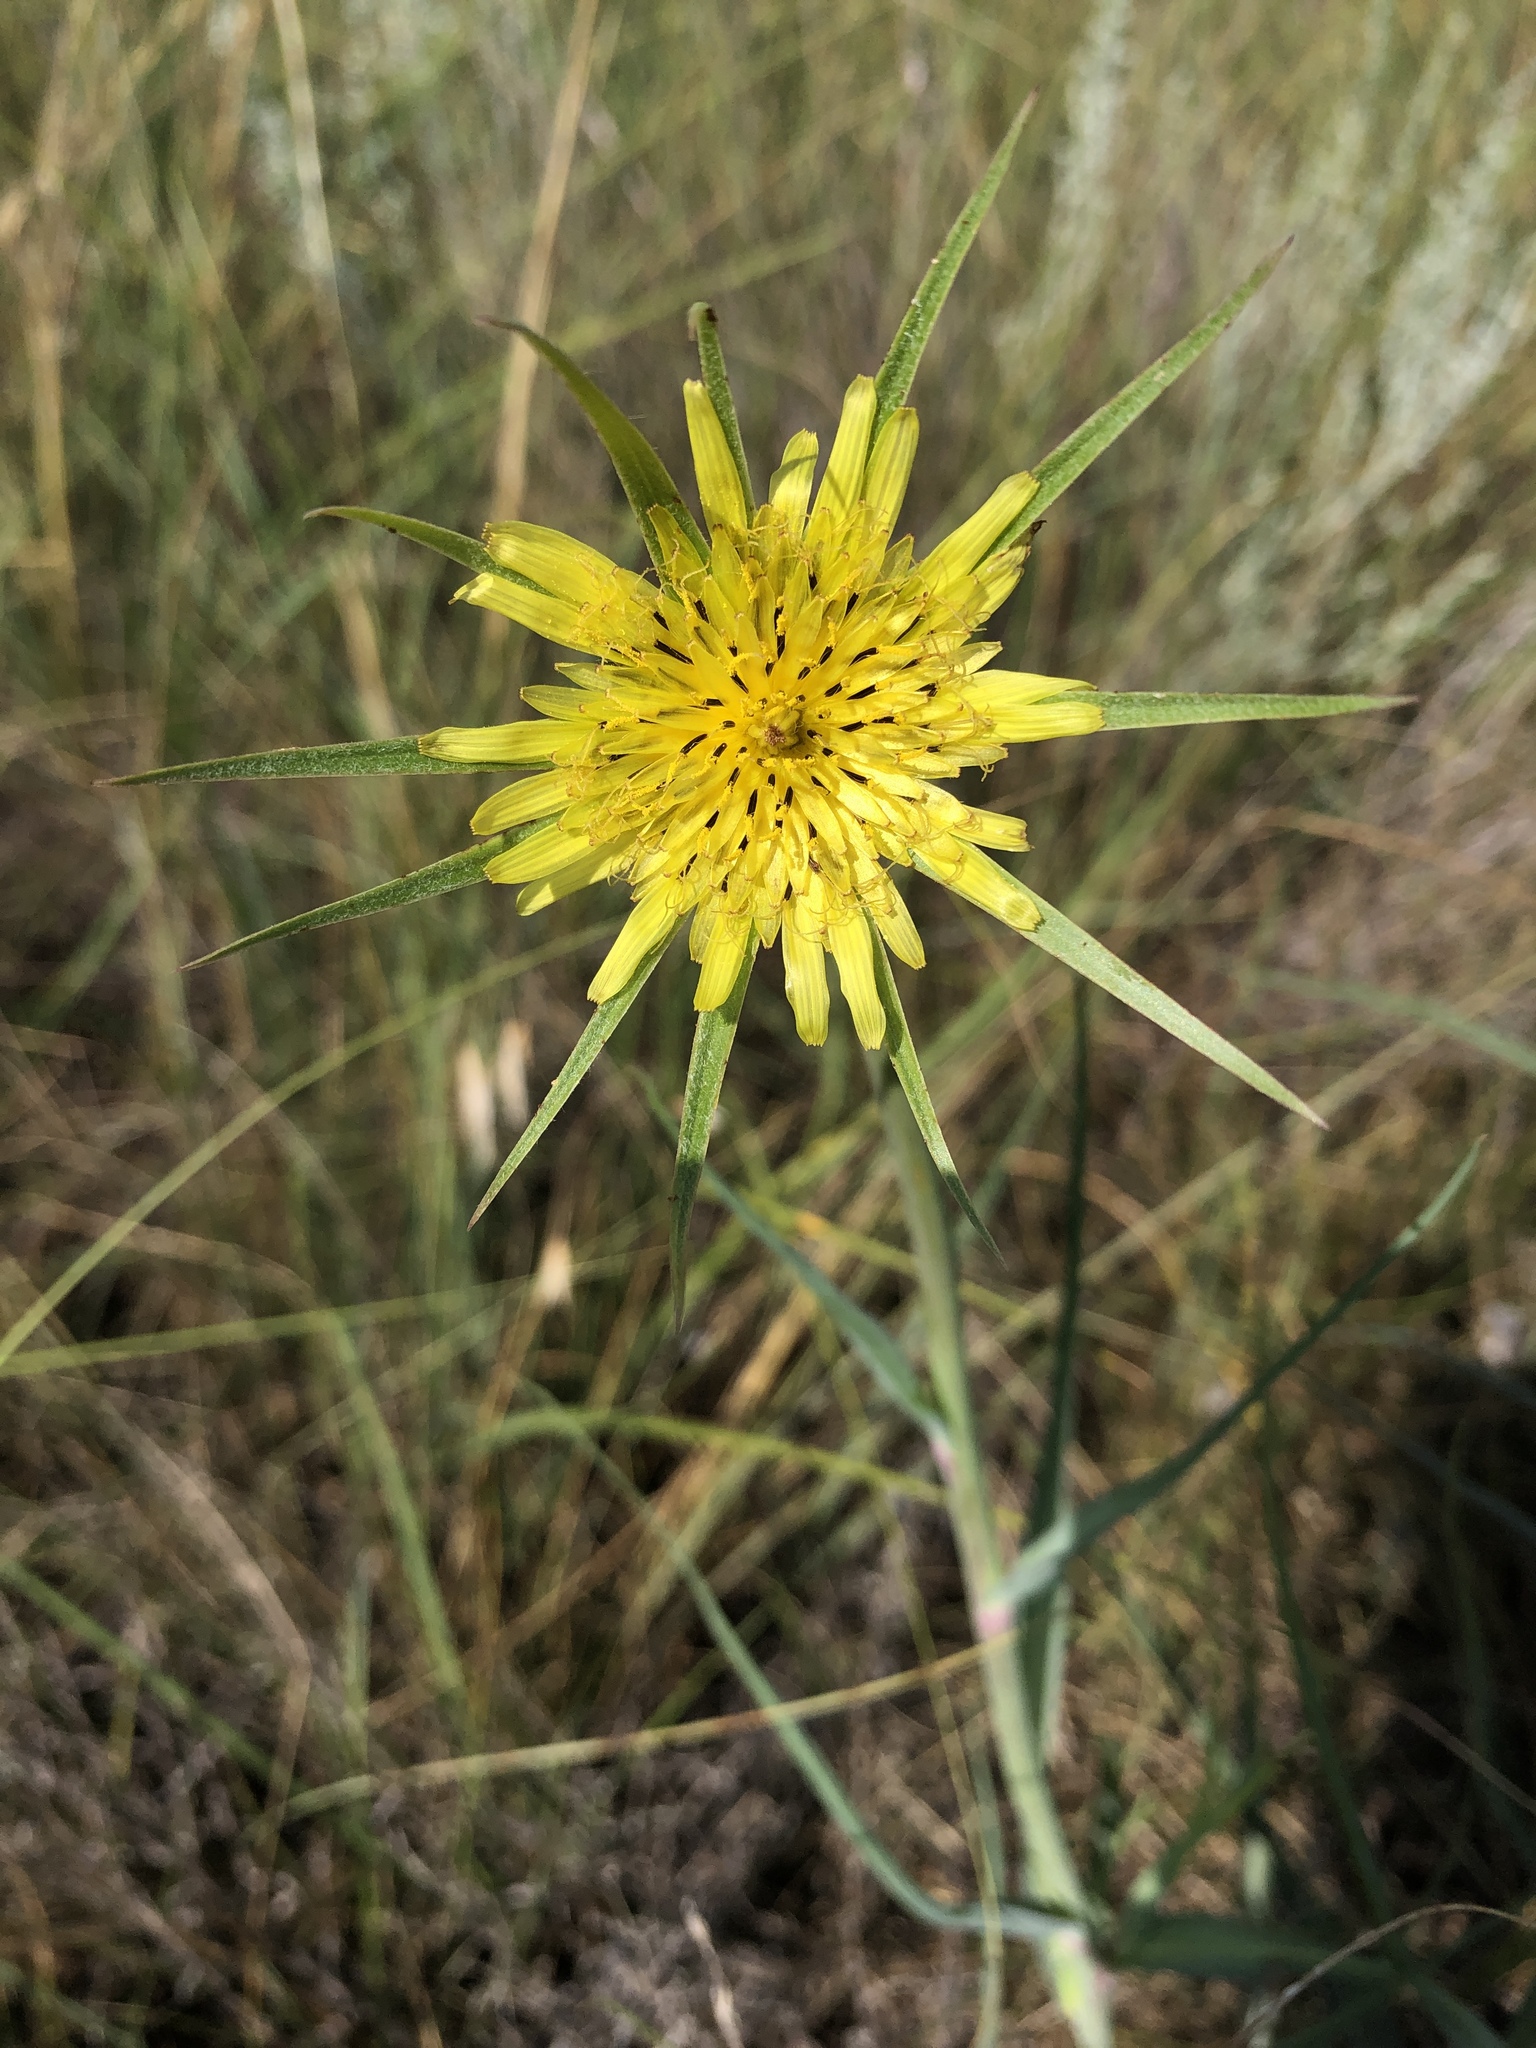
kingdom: Plantae
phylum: Tracheophyta
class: Magnoliopsida
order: Asterales
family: Asteraceae
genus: Tragopogon
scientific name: Tragopogon dubius
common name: Yellow salsify
